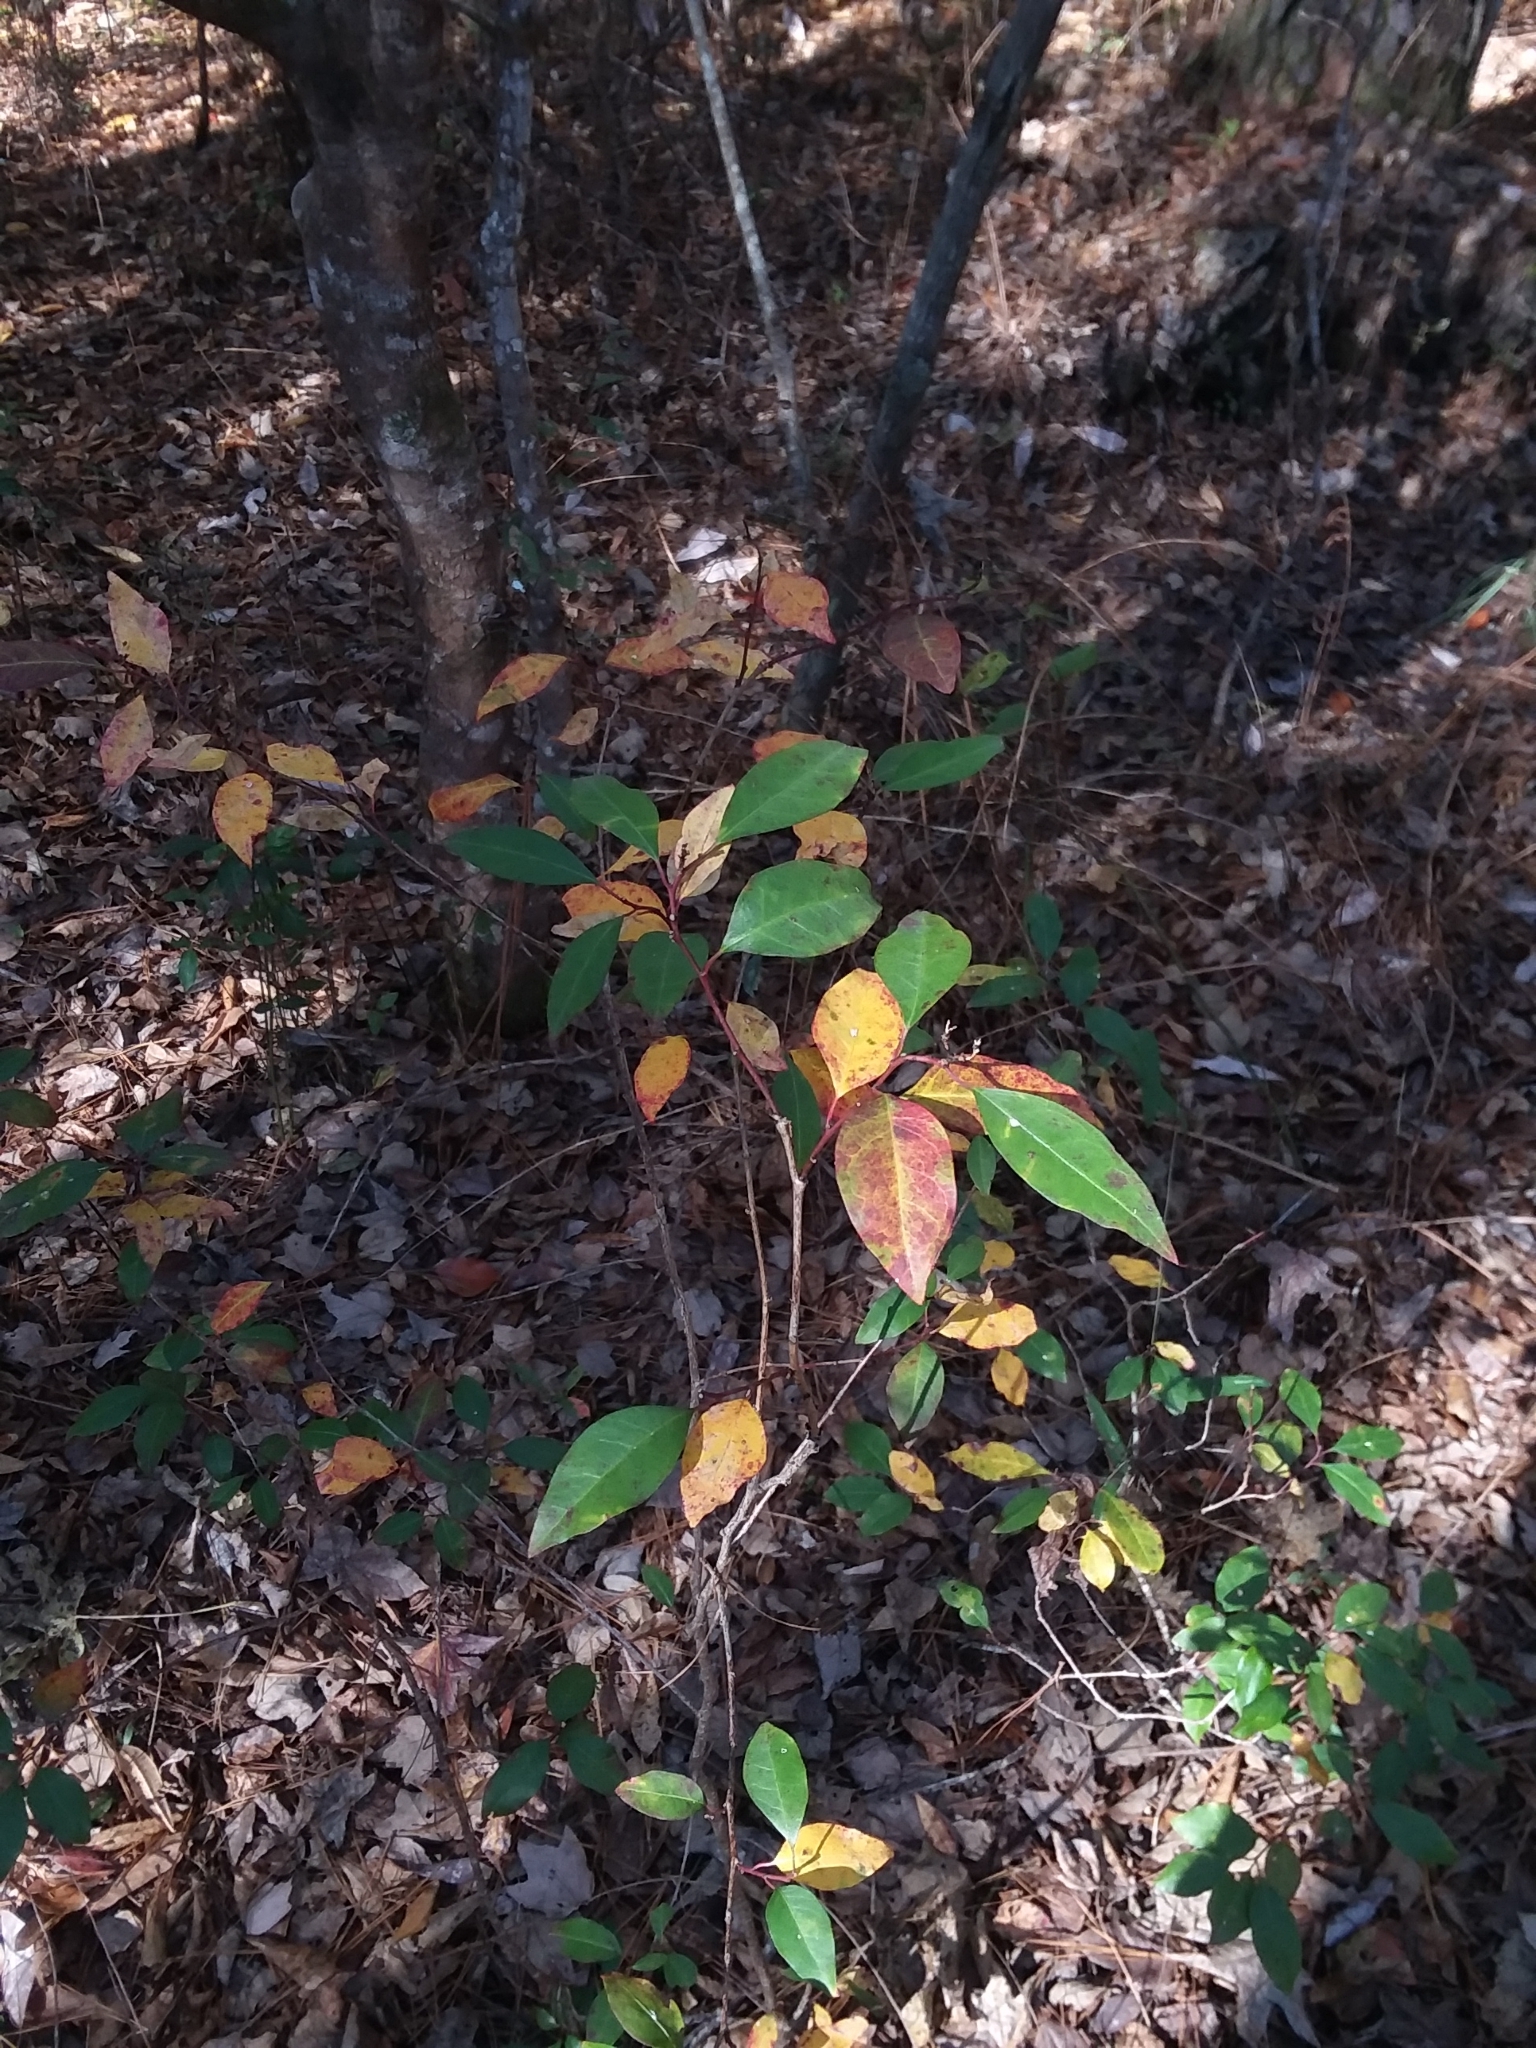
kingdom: Plantae
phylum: Tracheophyta
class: Magnoliopsida
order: Malpighiales
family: Euphorbiaceae
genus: Ditrysinia
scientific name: Ditrysinia fruticosa
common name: Gulf sebastian-bush
